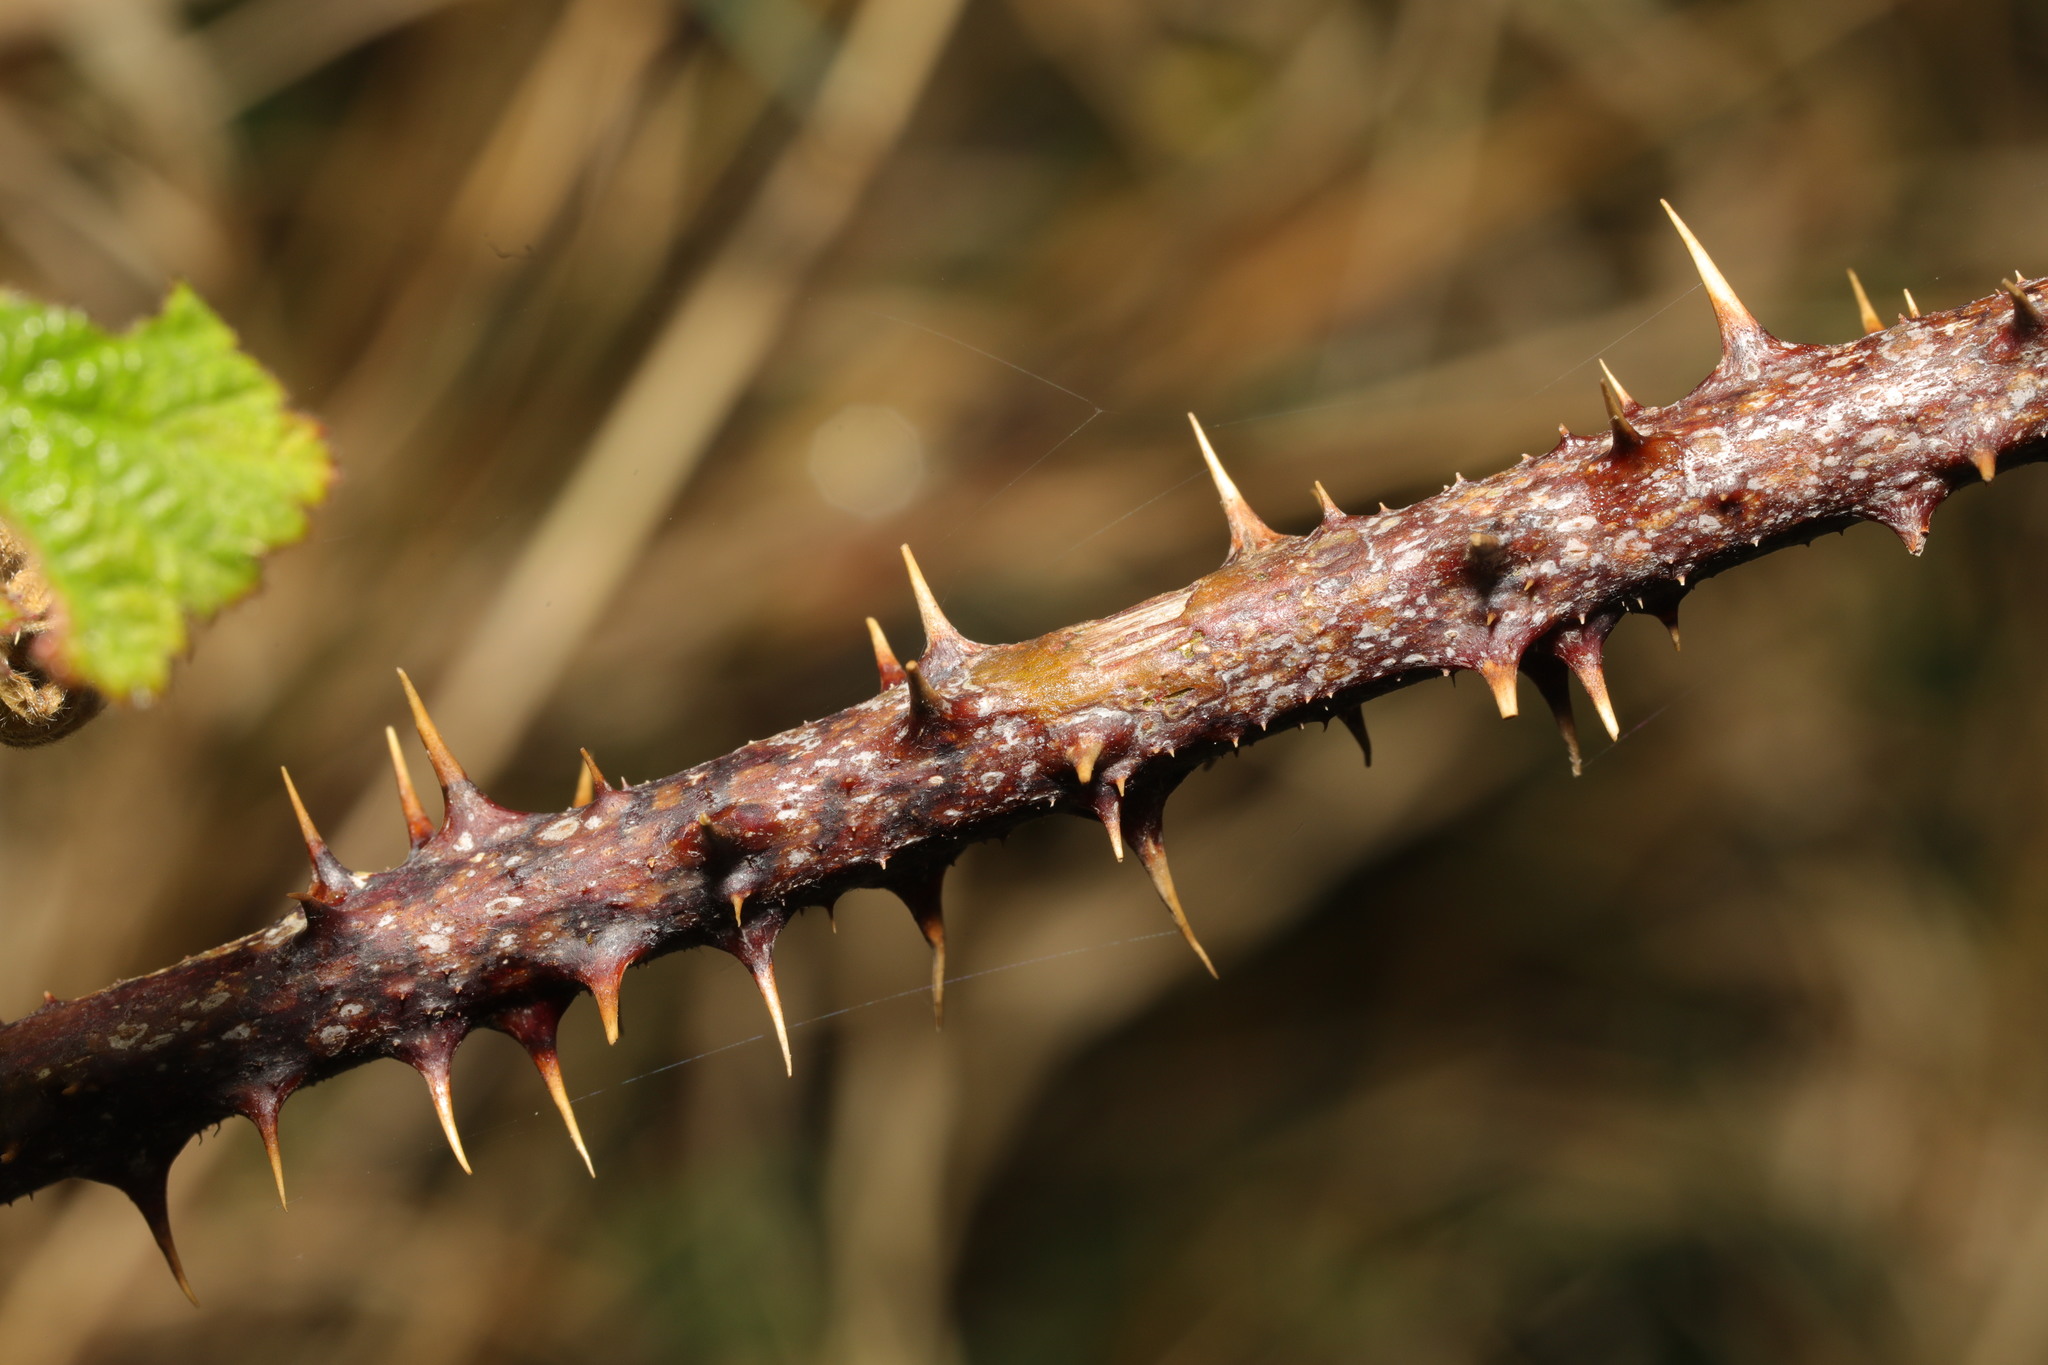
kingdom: Plantae
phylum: Tracheophyta
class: Magnoliopsida
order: Rosales
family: Rosaceae
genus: Rubus
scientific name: Rubus fruticosus
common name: Blackberry, bramble
